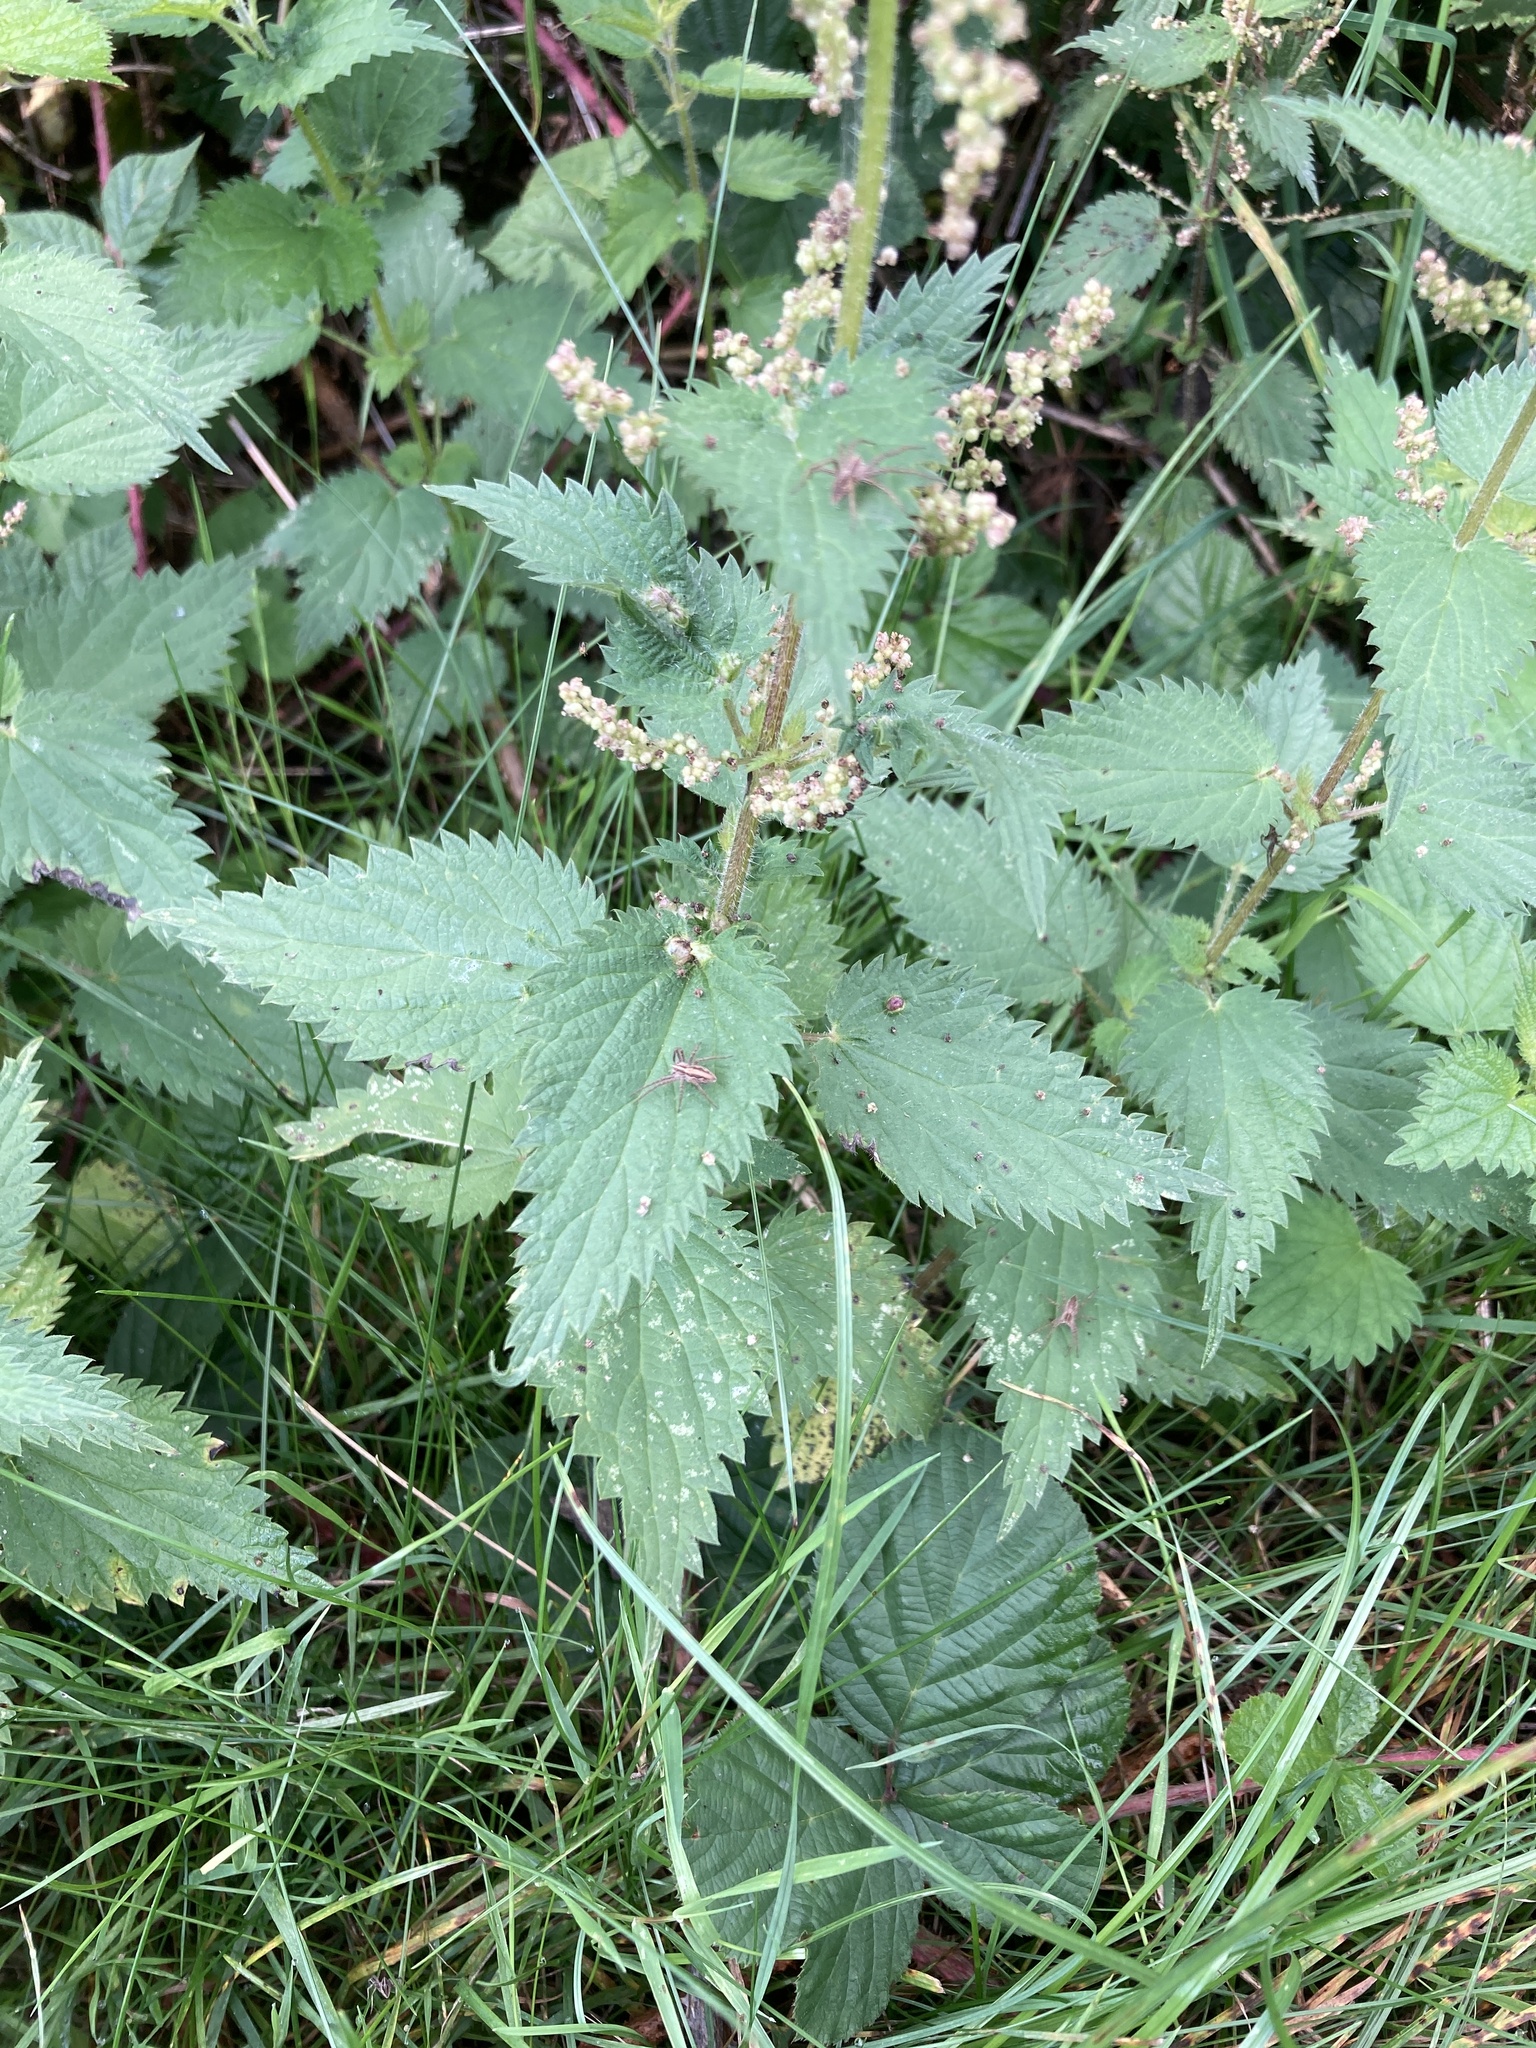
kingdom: Plantae
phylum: Tracheophyta
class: Magnoliopsida
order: Rosales
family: Urticaceae
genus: Urtica
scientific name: Urtica dioica
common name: Common nettle
